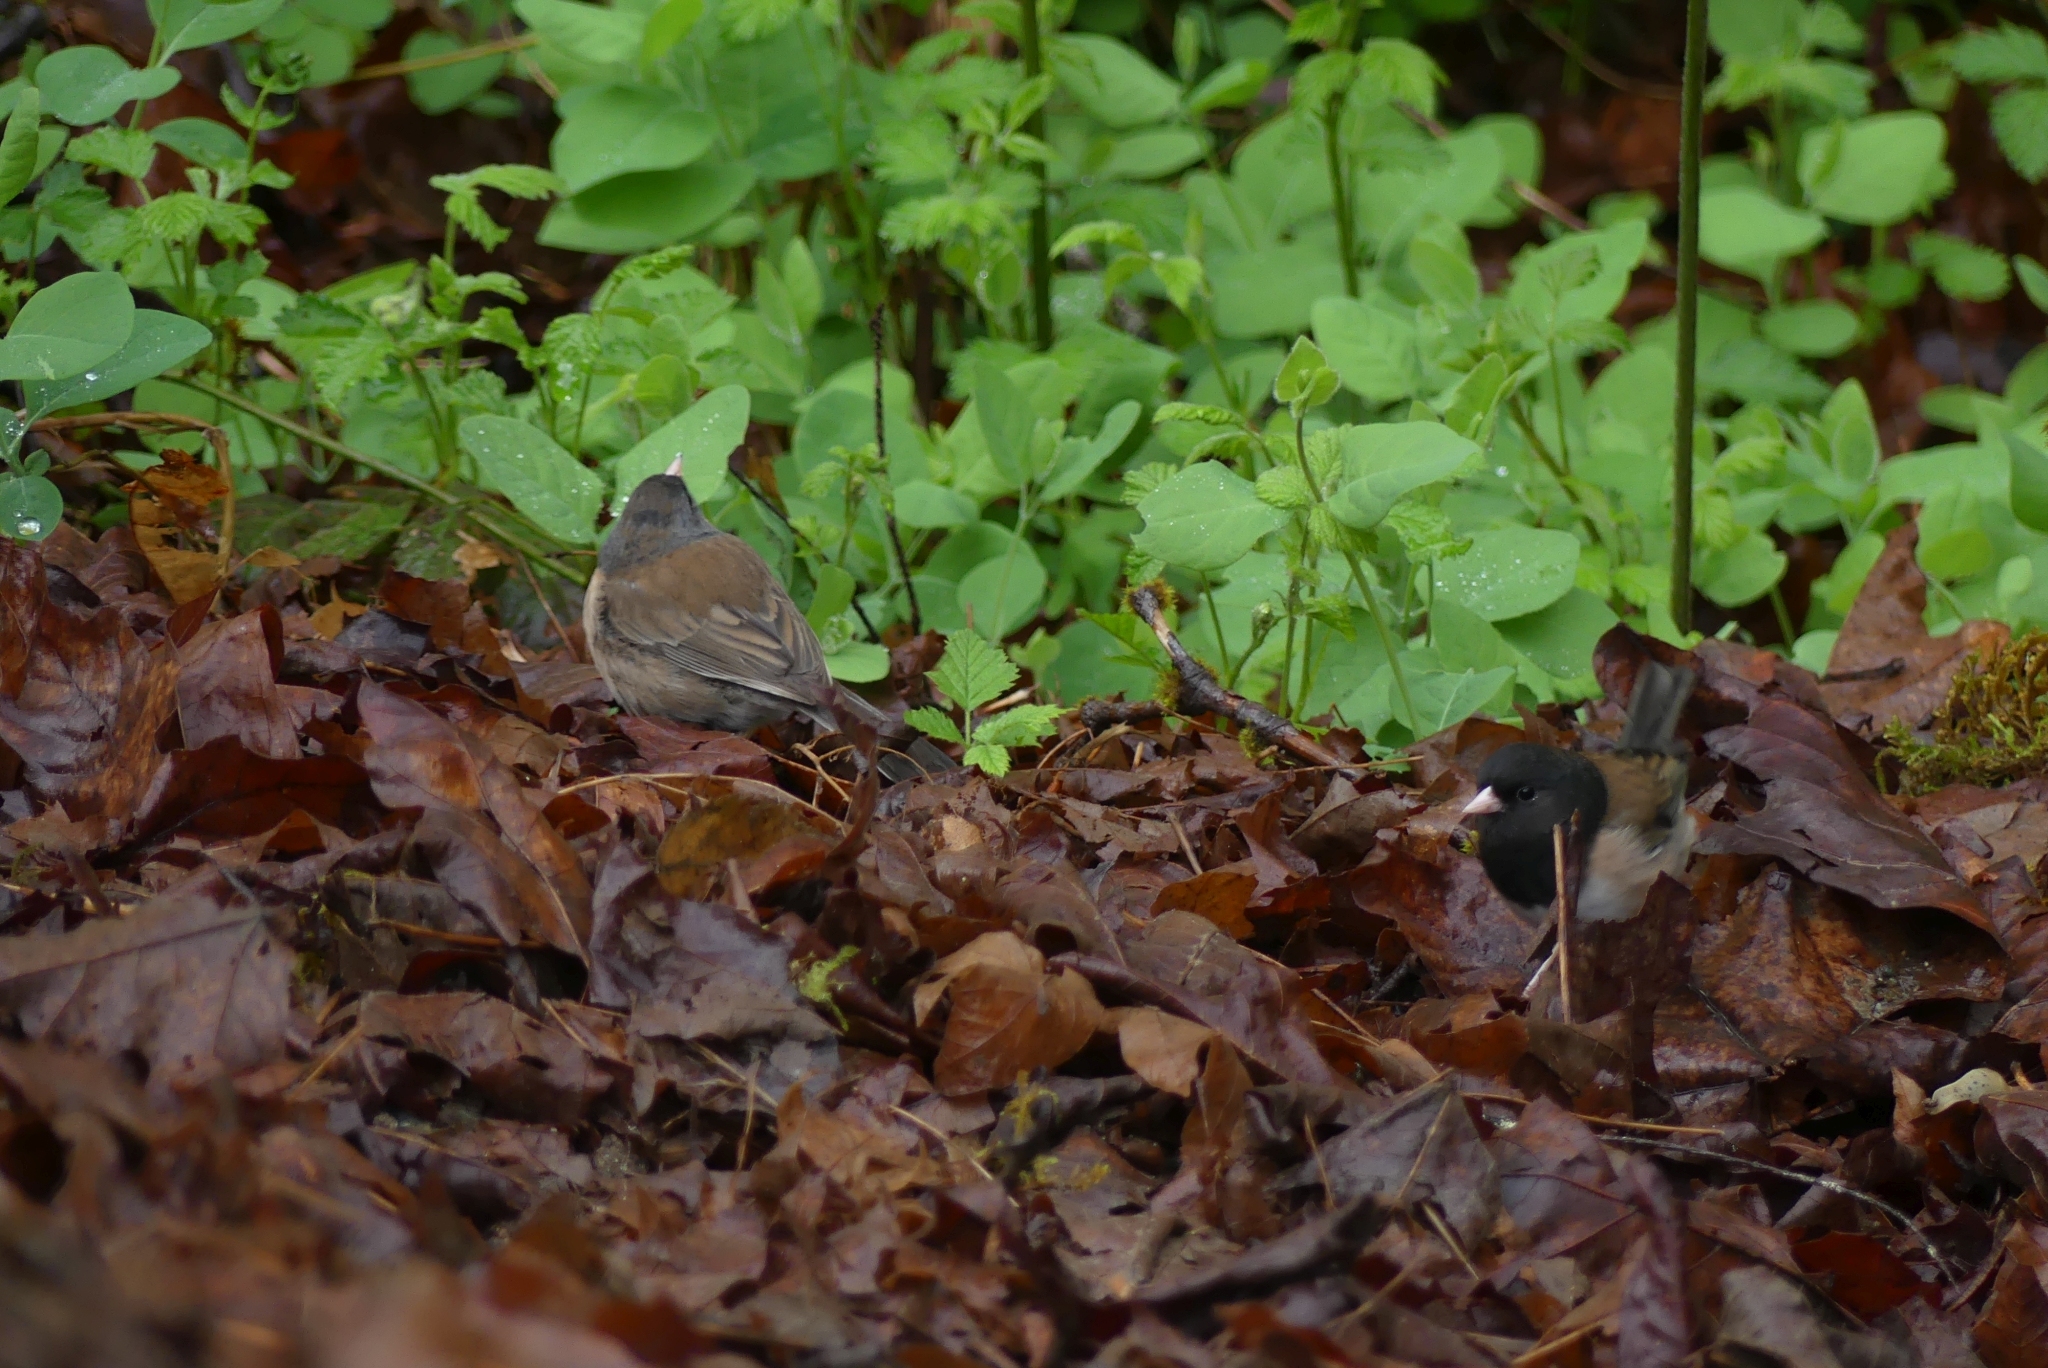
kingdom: Animalia
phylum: Chordata
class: Aves
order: Passeriformes
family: Passerellidae
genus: Junco
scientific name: Junco hyemalis
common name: Dark-eyed junco
